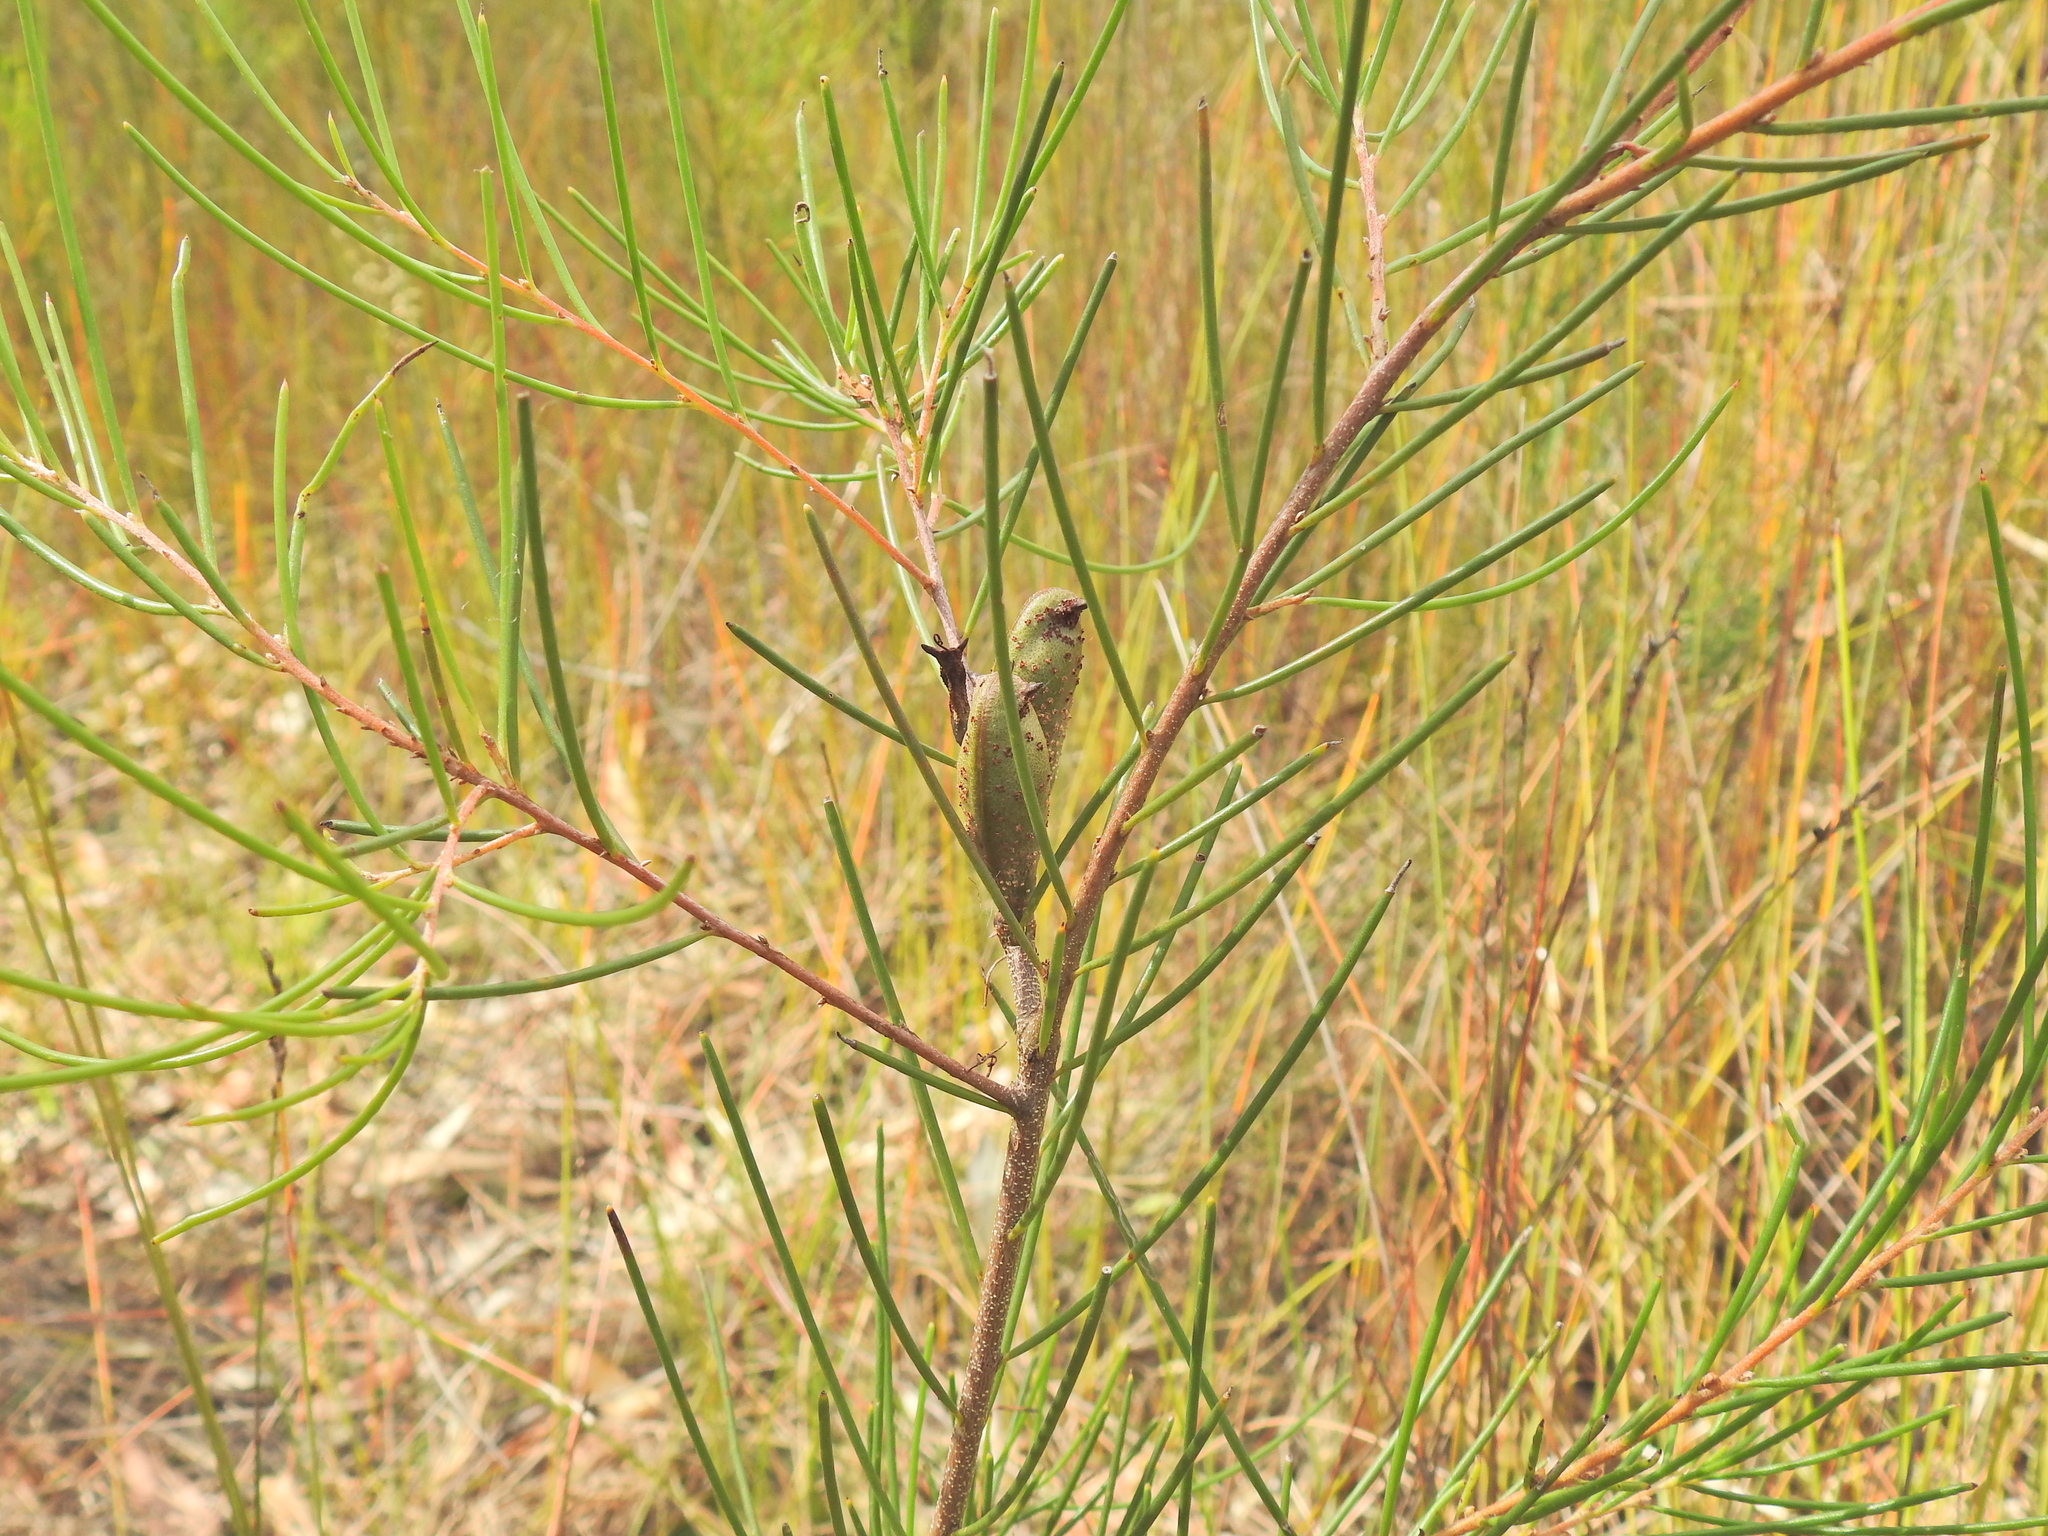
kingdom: Plantae
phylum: Tracheophyta
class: Magnoliopsida
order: Proteales
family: Proteaceae
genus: Hakea
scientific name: Hakea actites
